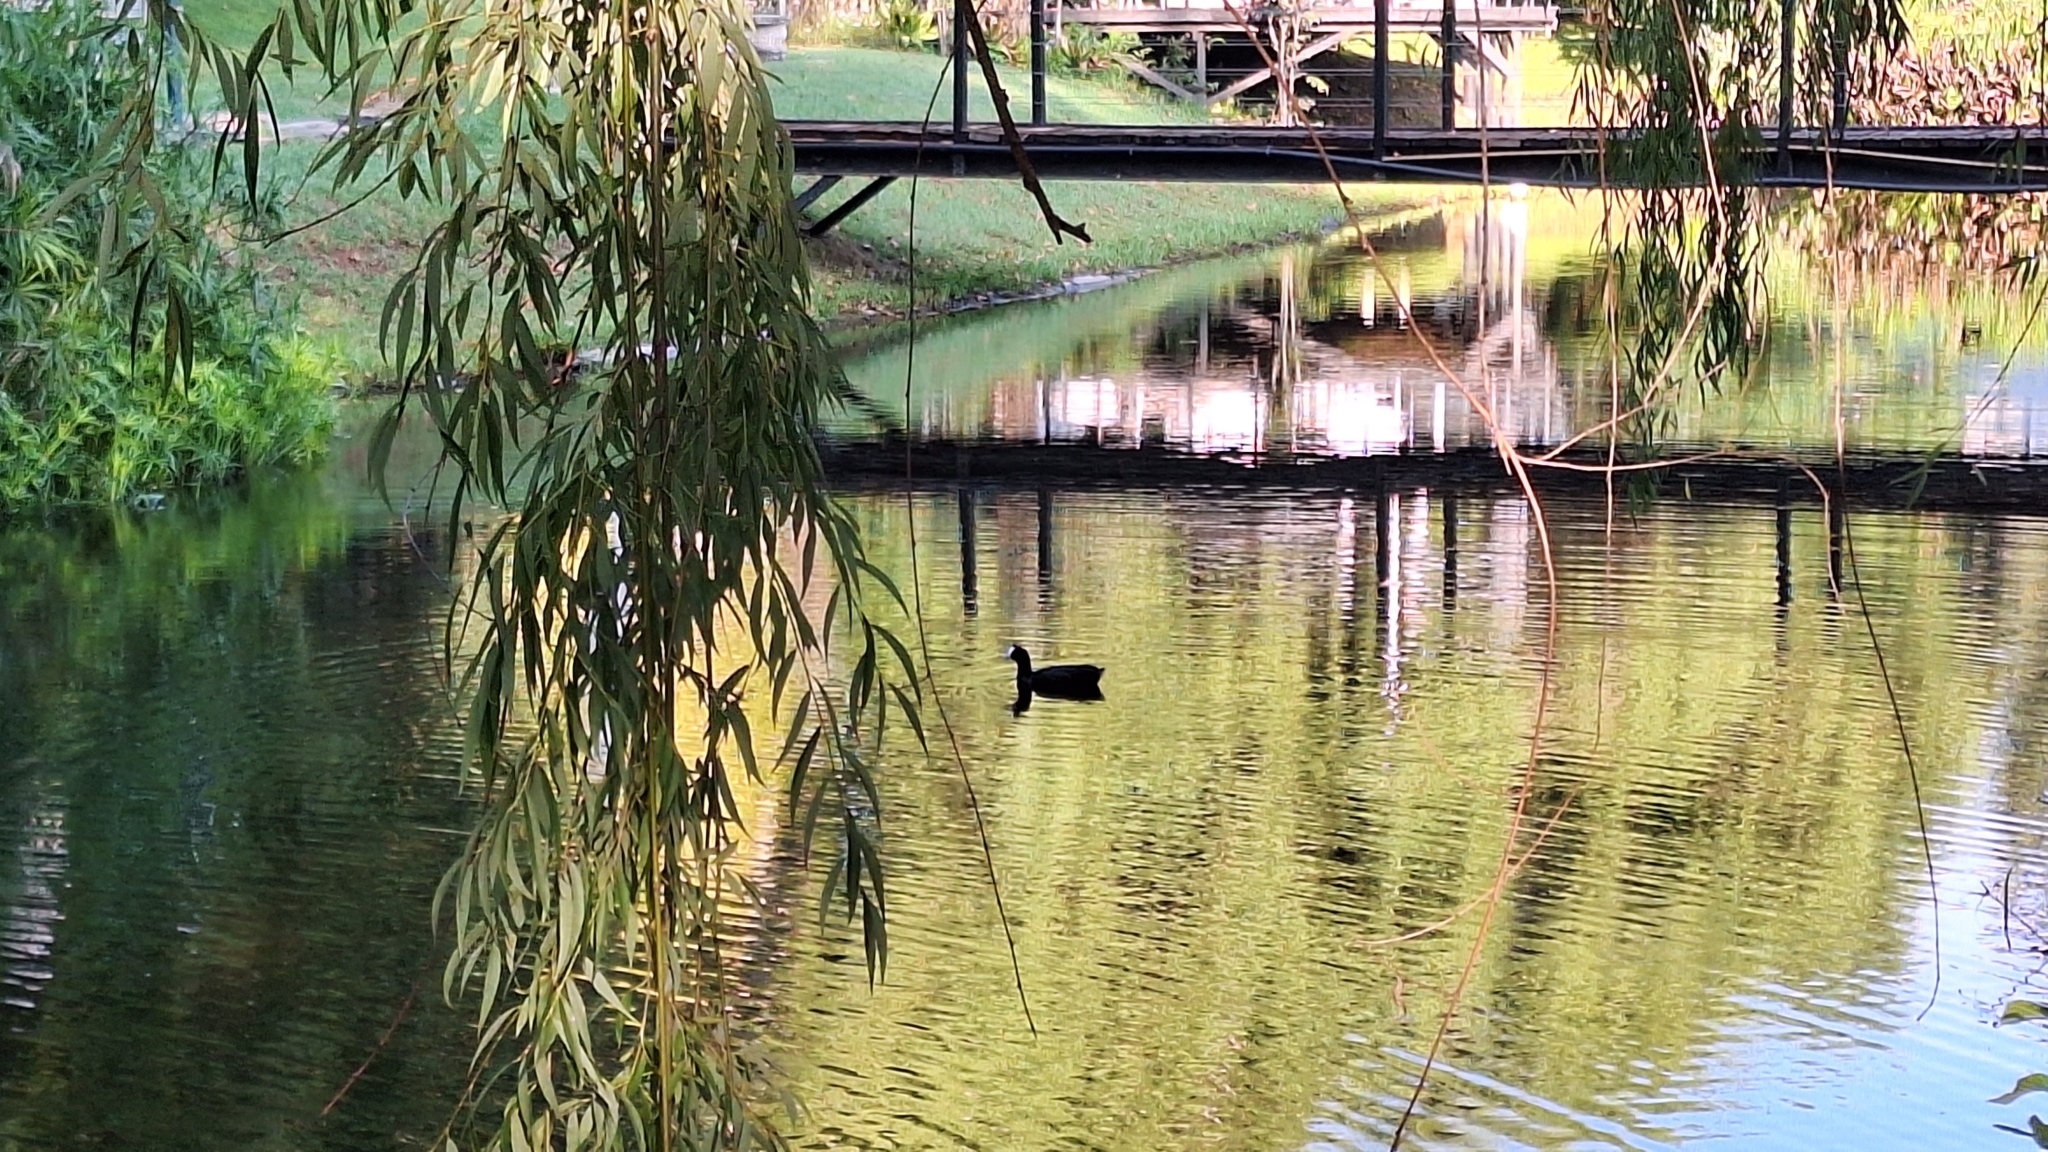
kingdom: Animalia
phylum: Chordata
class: Aves
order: Gruiformes
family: Rallidae
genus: Fulica
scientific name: Fulica cristata
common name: Red-knobbed coot
